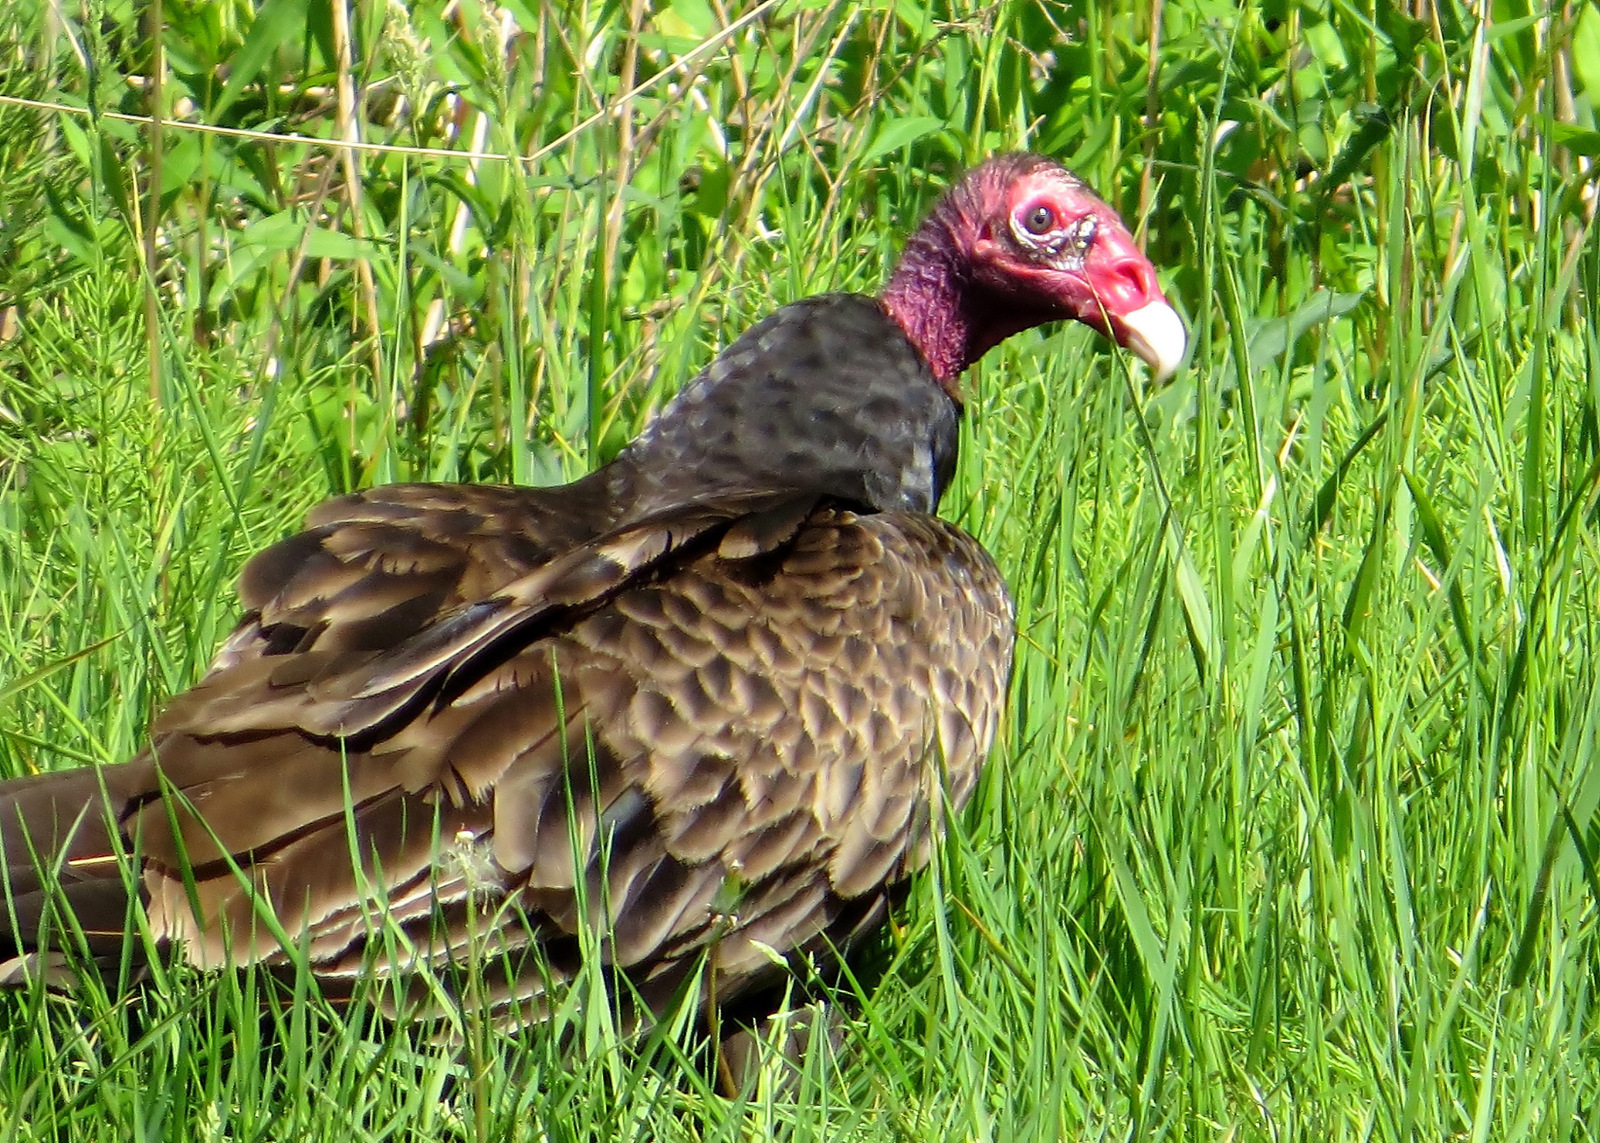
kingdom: Animalia
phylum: Chordata
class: Aves
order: Accipitriformes
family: Cathartidae
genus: Cathartes
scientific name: Cathartes aura
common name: Turkey vulture
